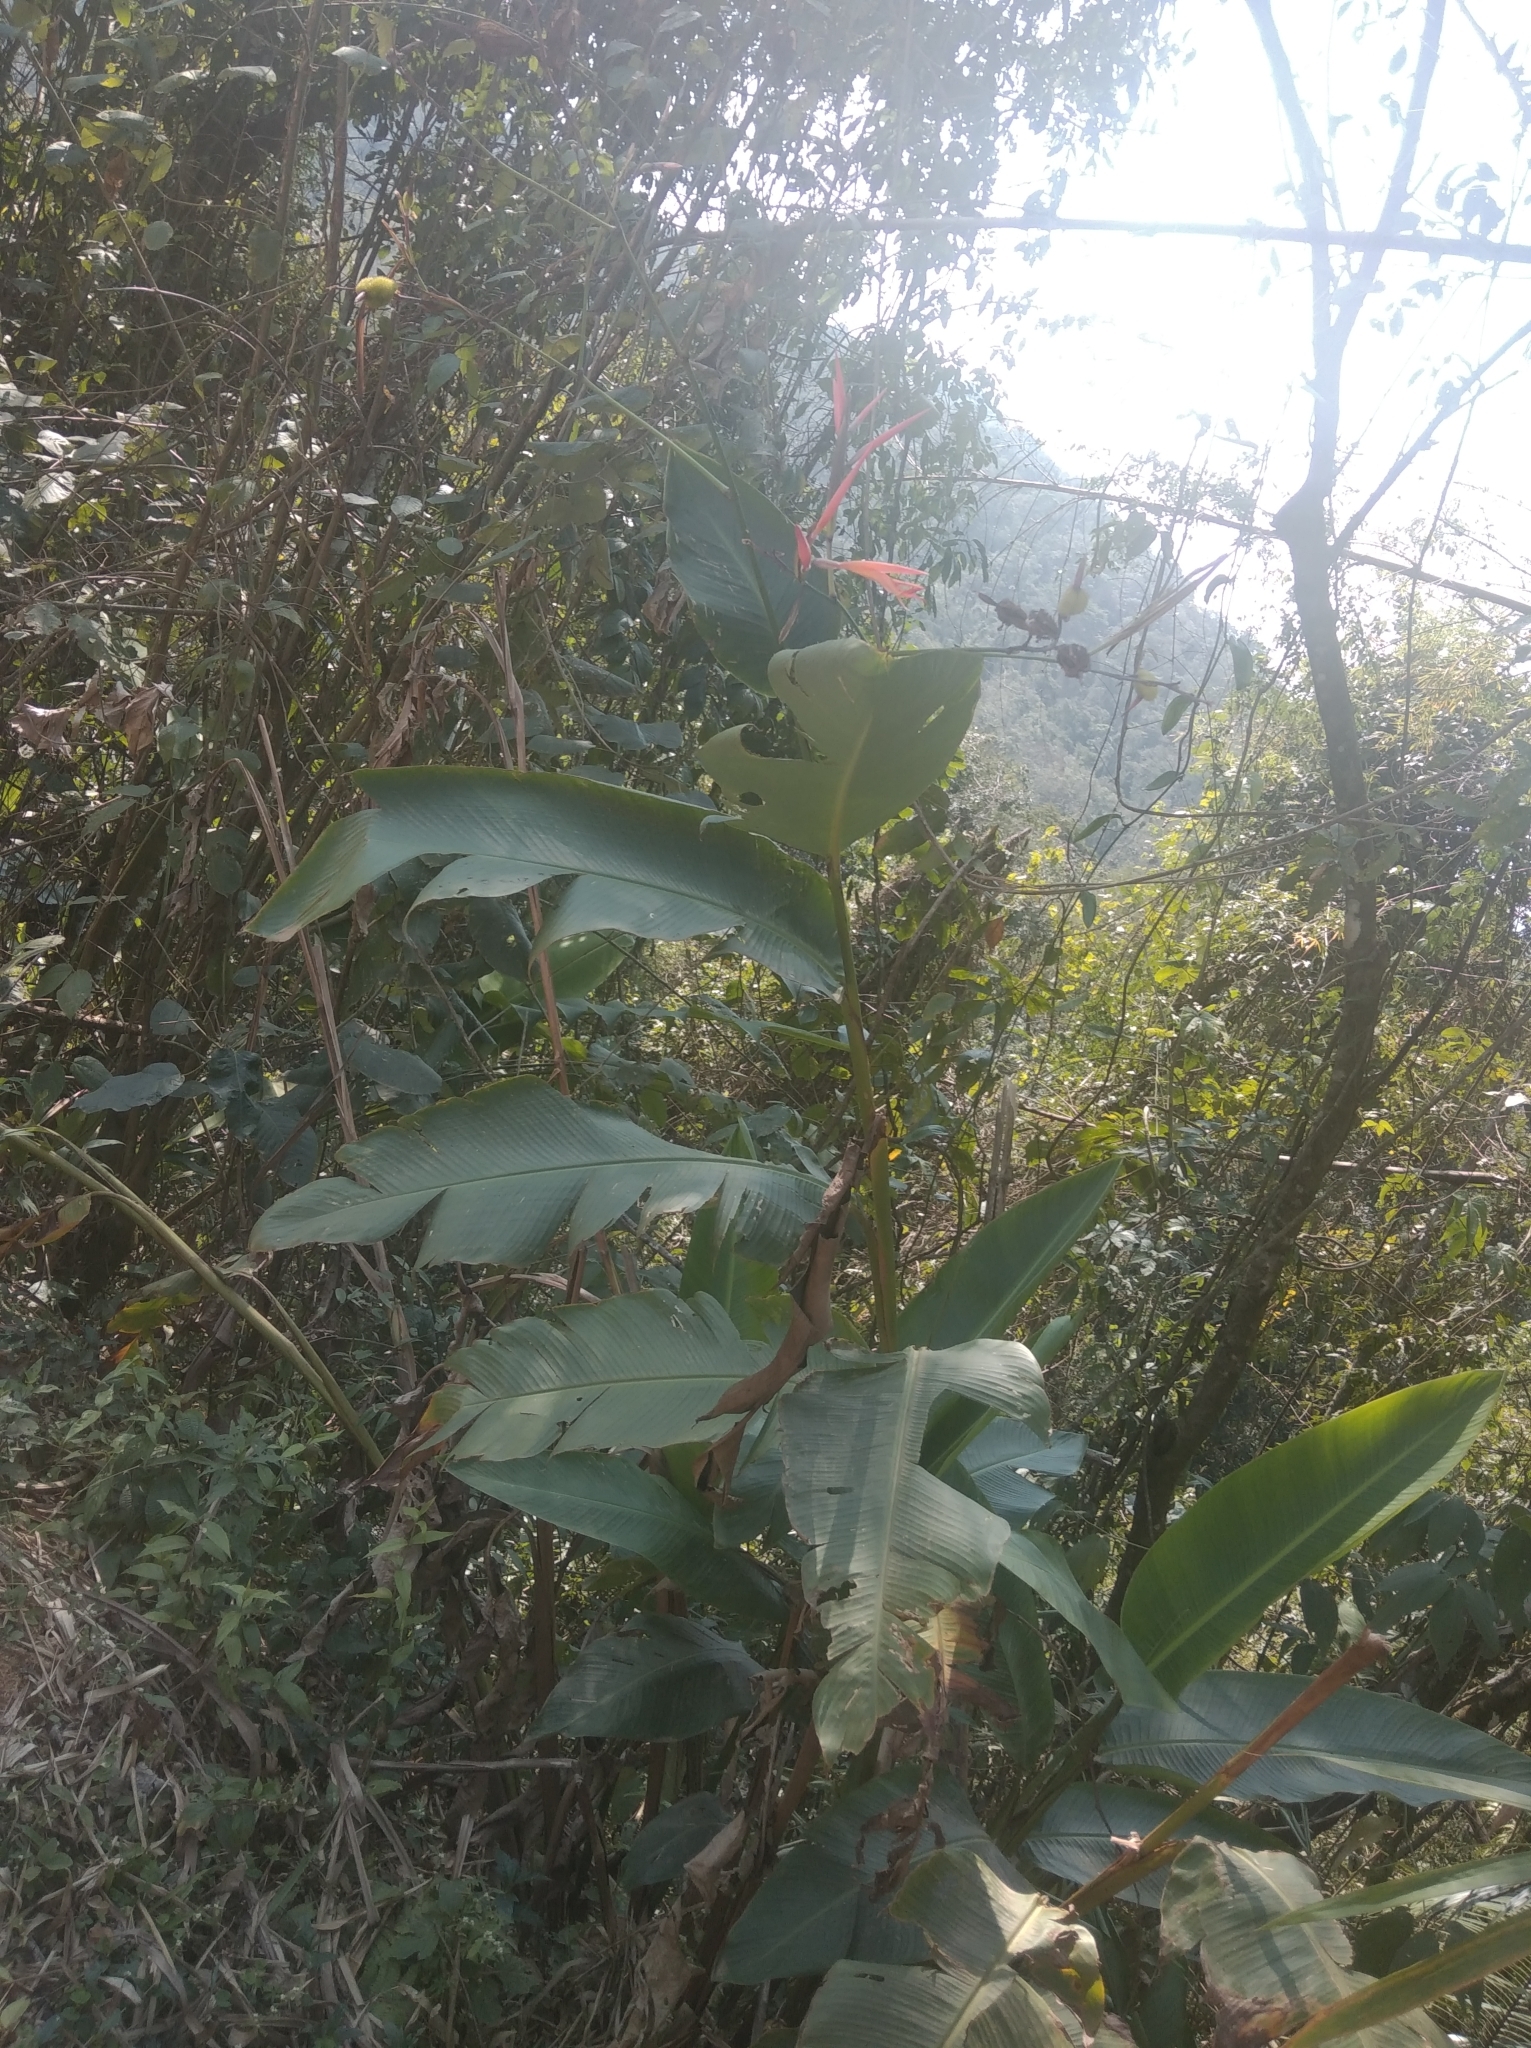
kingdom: Plantae
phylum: Tracheophyta
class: Liliopsida
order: Zingiberales
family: Heliconiaceae
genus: Heliconia
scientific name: Heliconia latispatha
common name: Expanded lobsterclaw
